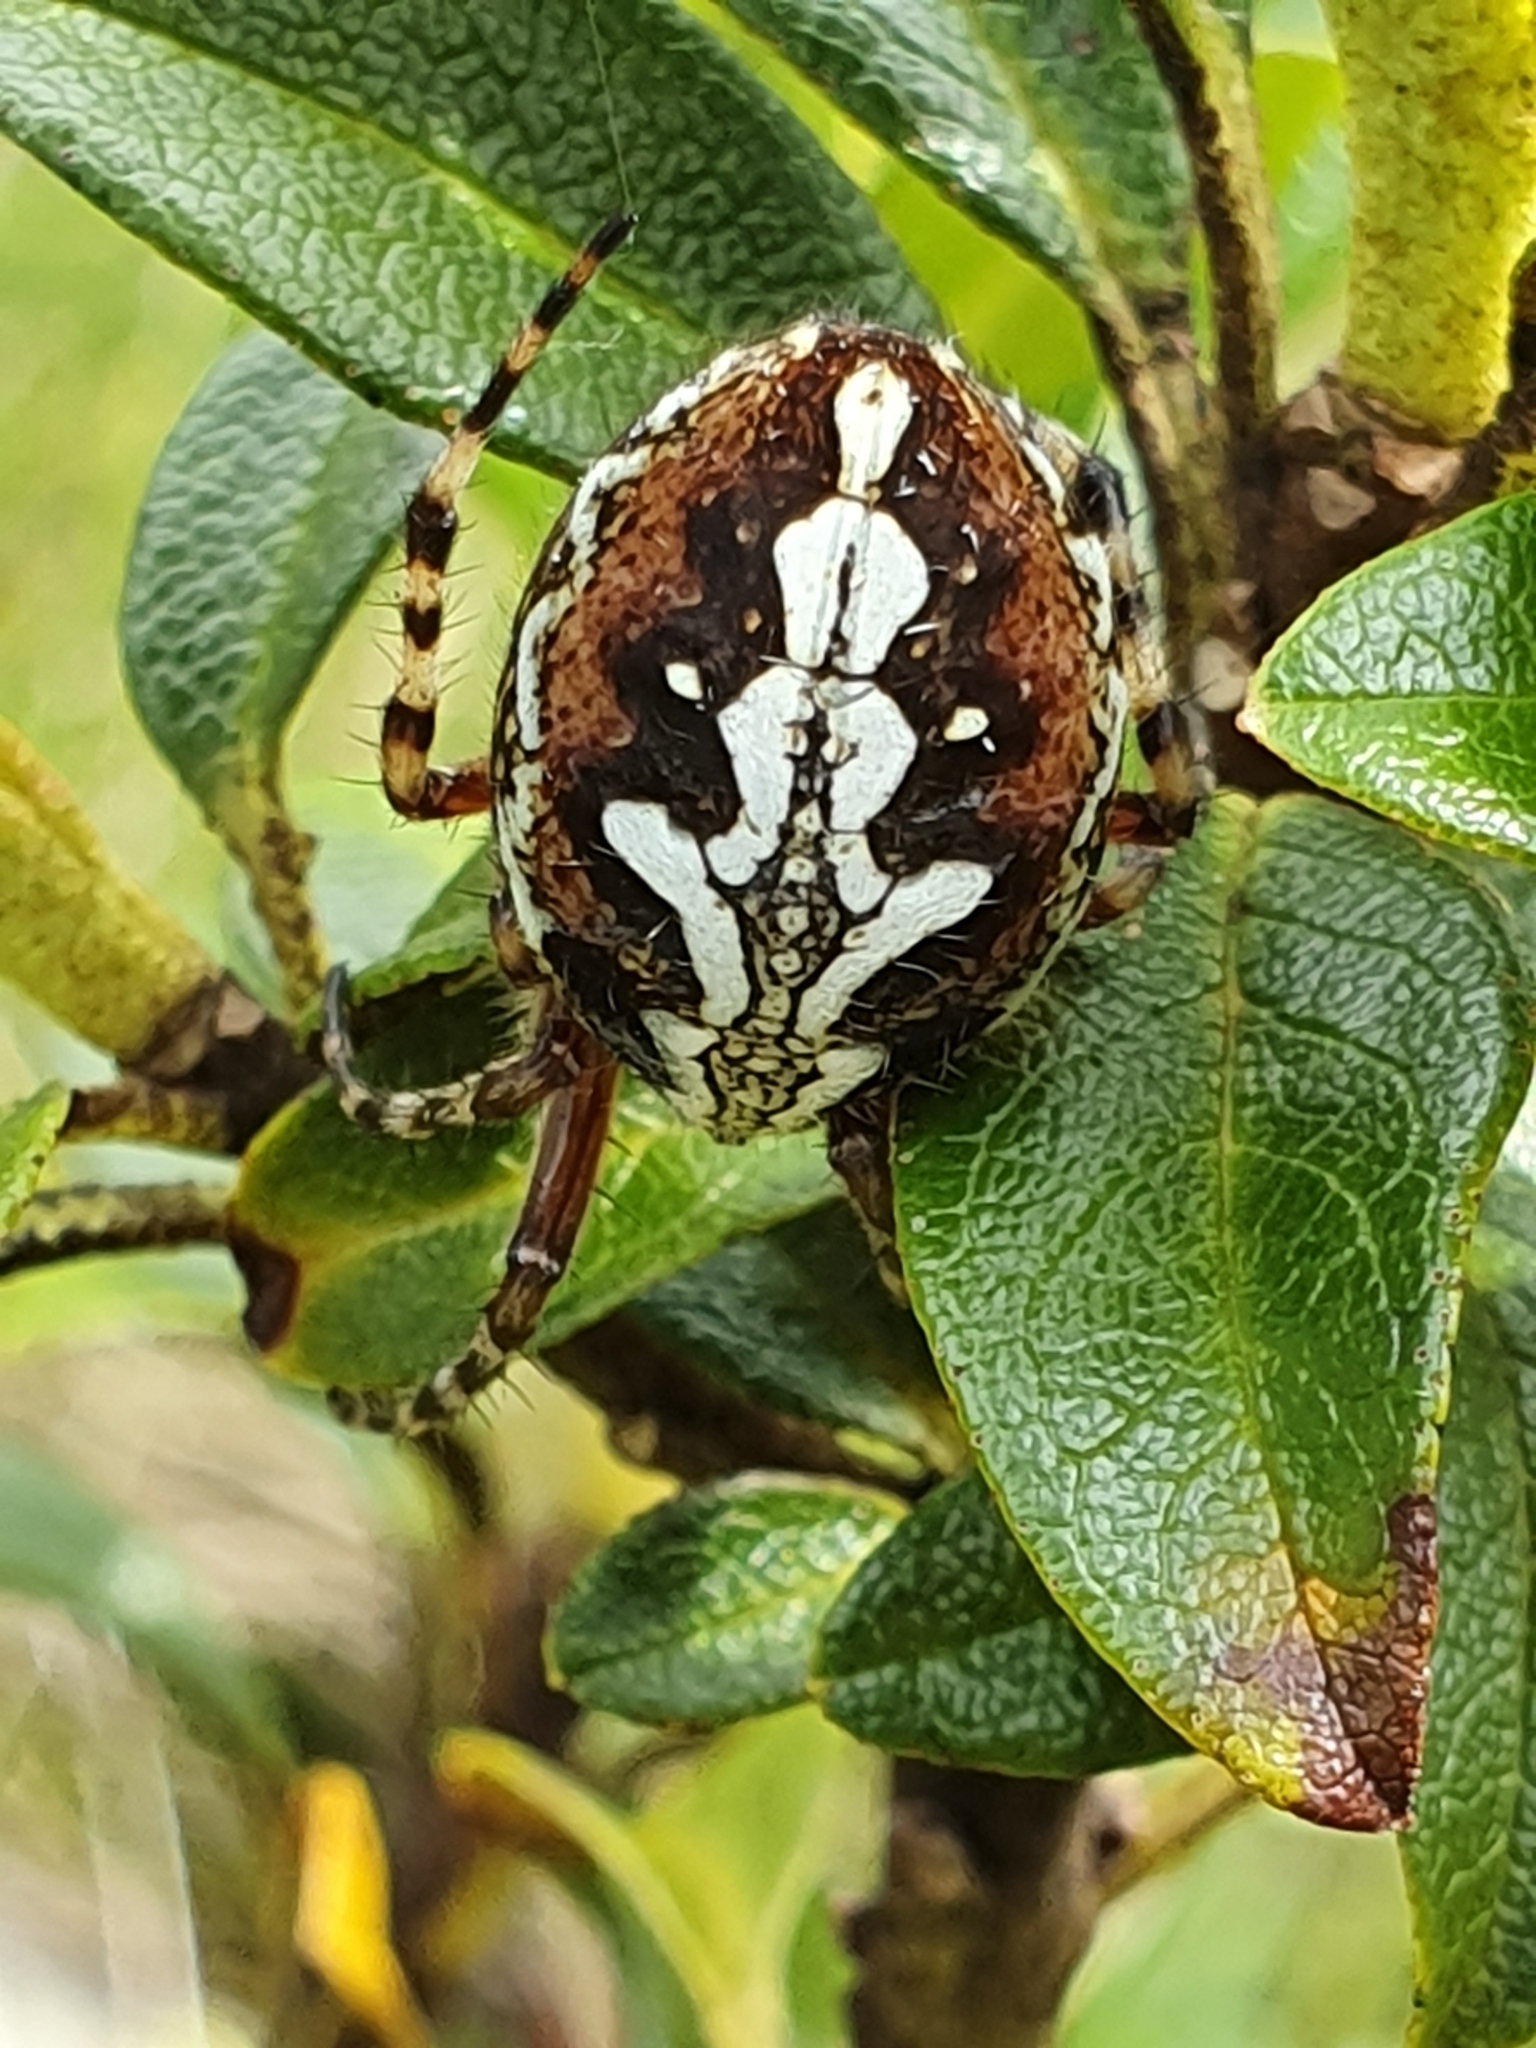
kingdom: Animalia
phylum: Arthropoda
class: Arachnida
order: Araneae
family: Araneidae
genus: Aculepeira
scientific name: Aculepeira ceropegia
